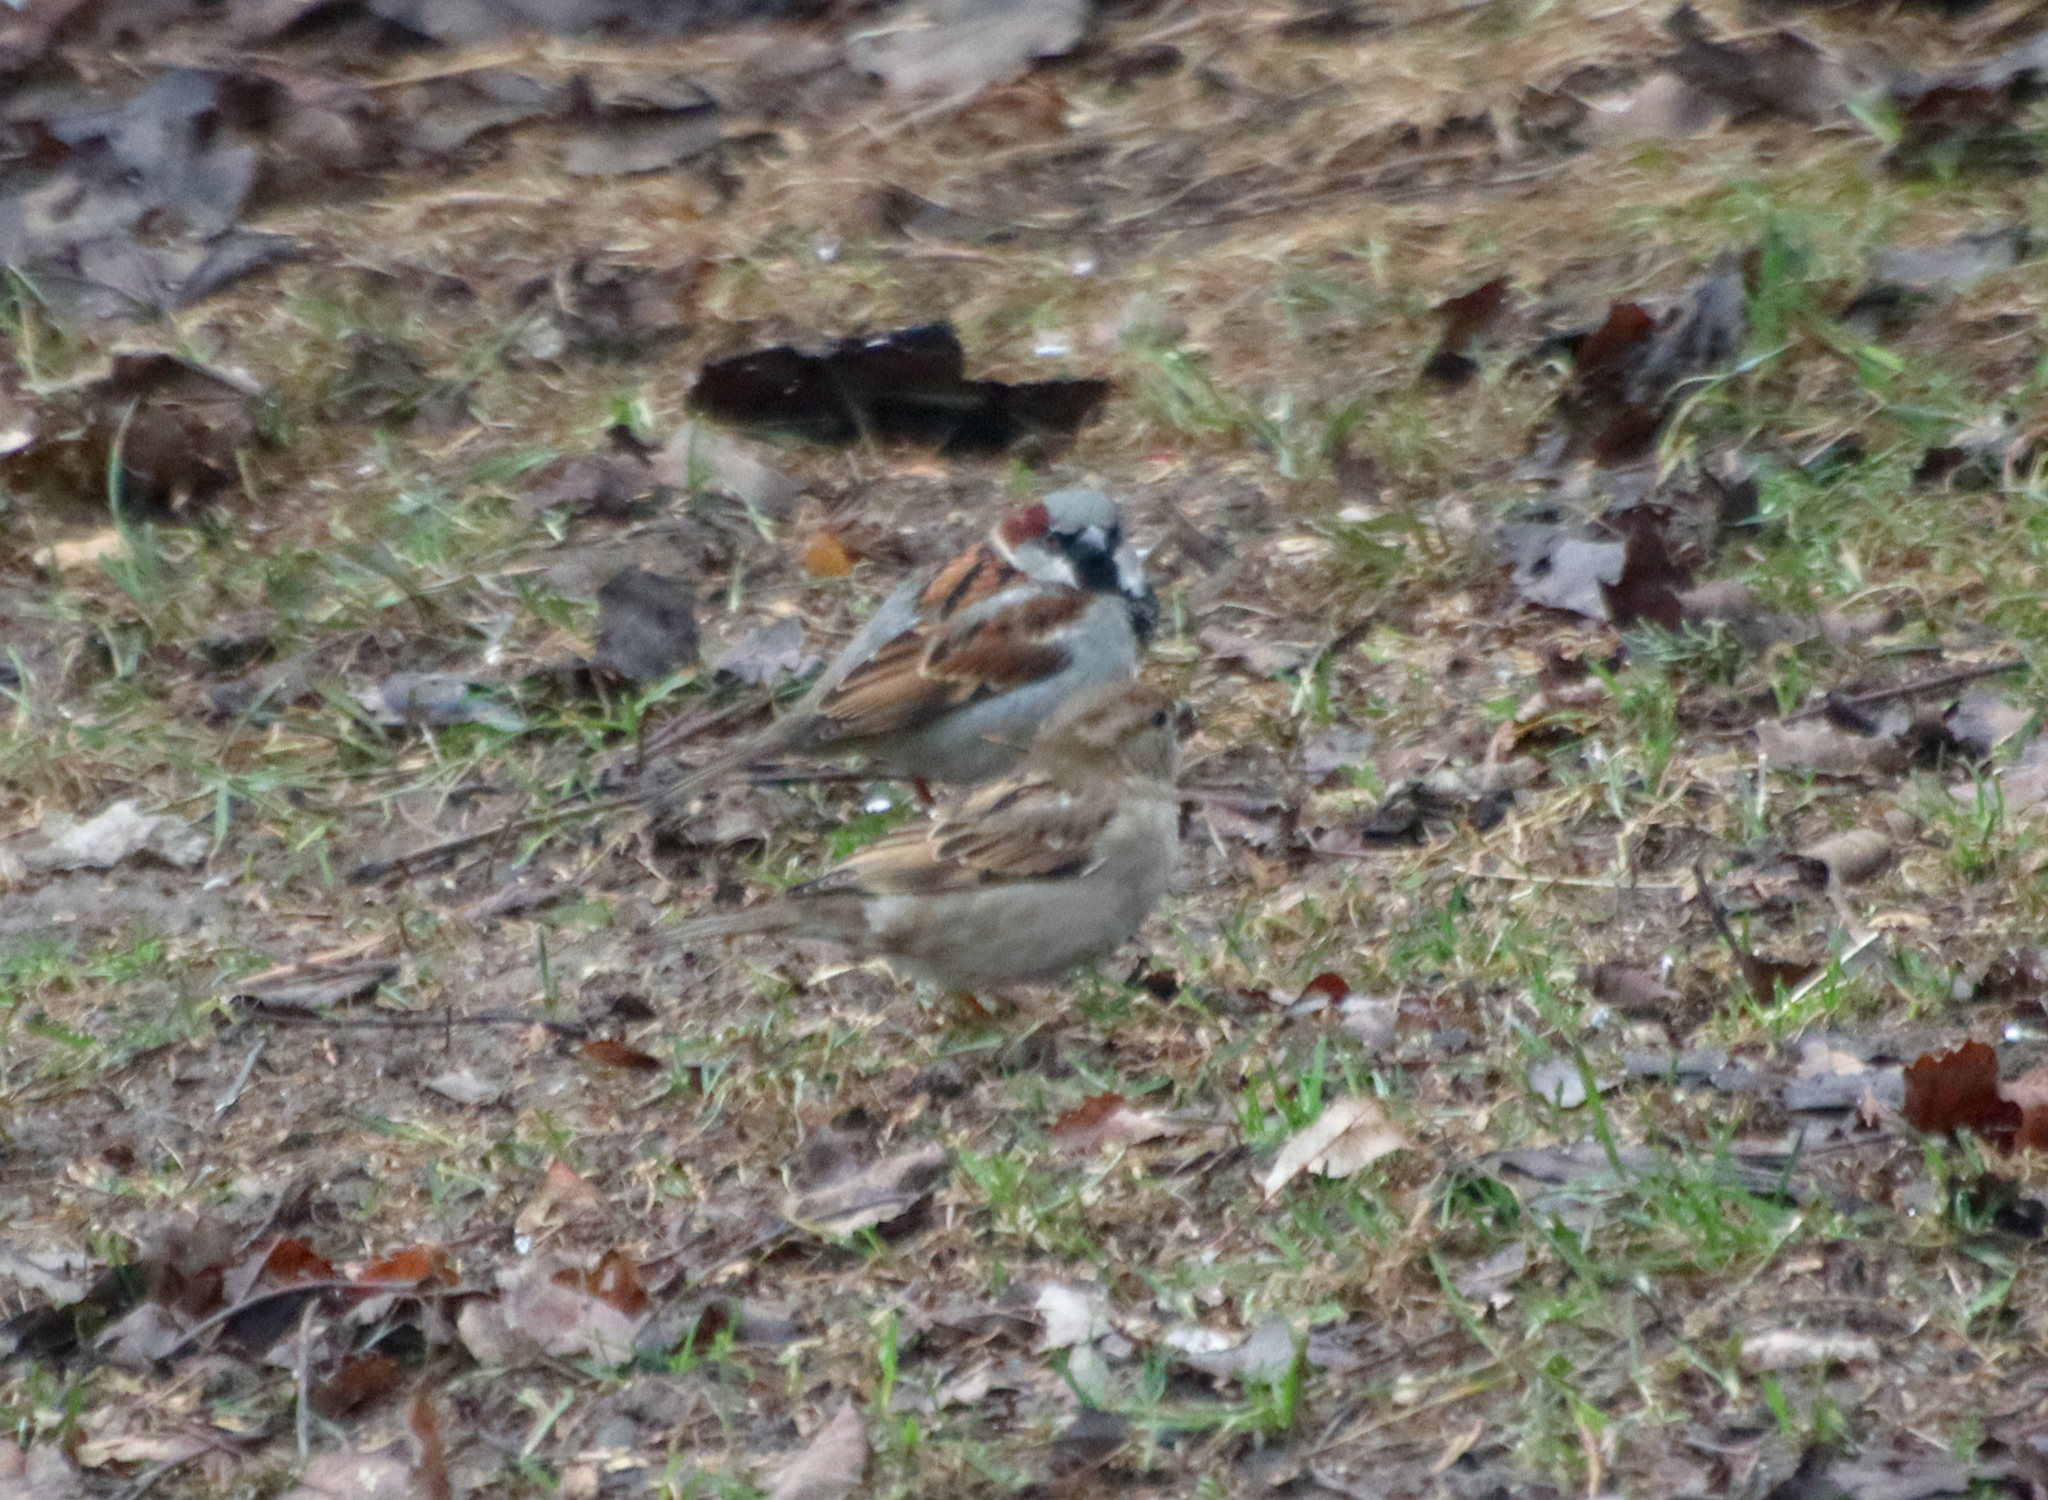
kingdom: Animalia
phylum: Chordata
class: Aves
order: Passeriformes
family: Passeridae
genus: Passer
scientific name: Passer domesticus
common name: House sparrow
